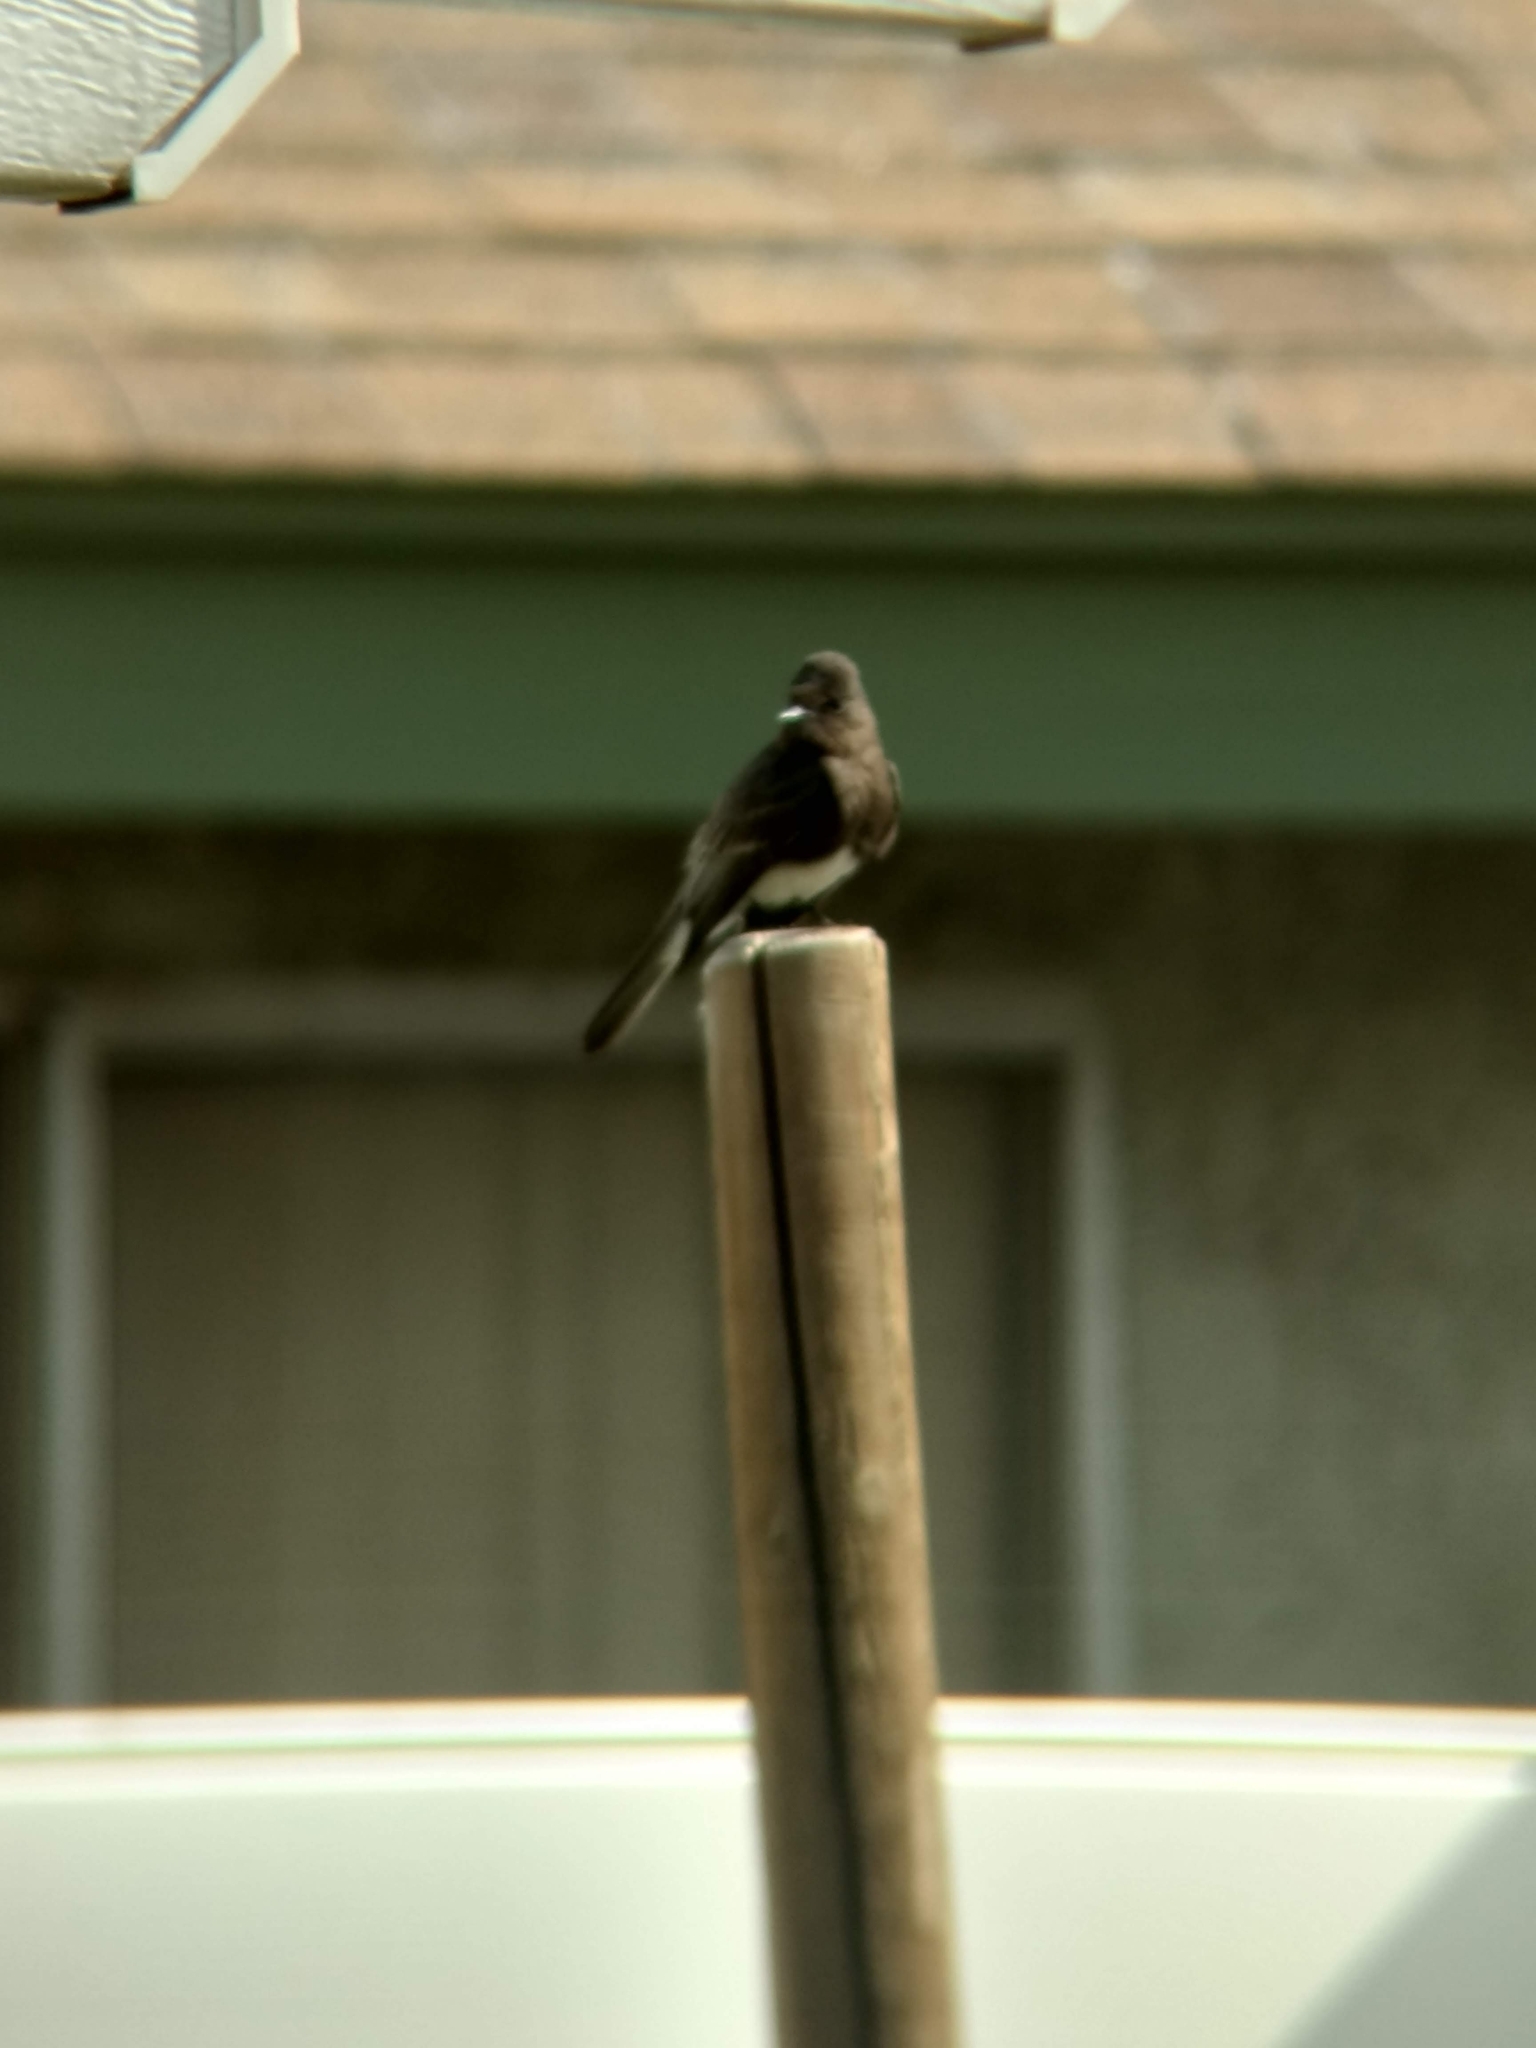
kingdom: Animalia
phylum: Chordata
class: Aves
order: Passeriformes
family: Tyrannidae
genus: Sayornis
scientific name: Sayornis nigricans
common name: Black phoebe
